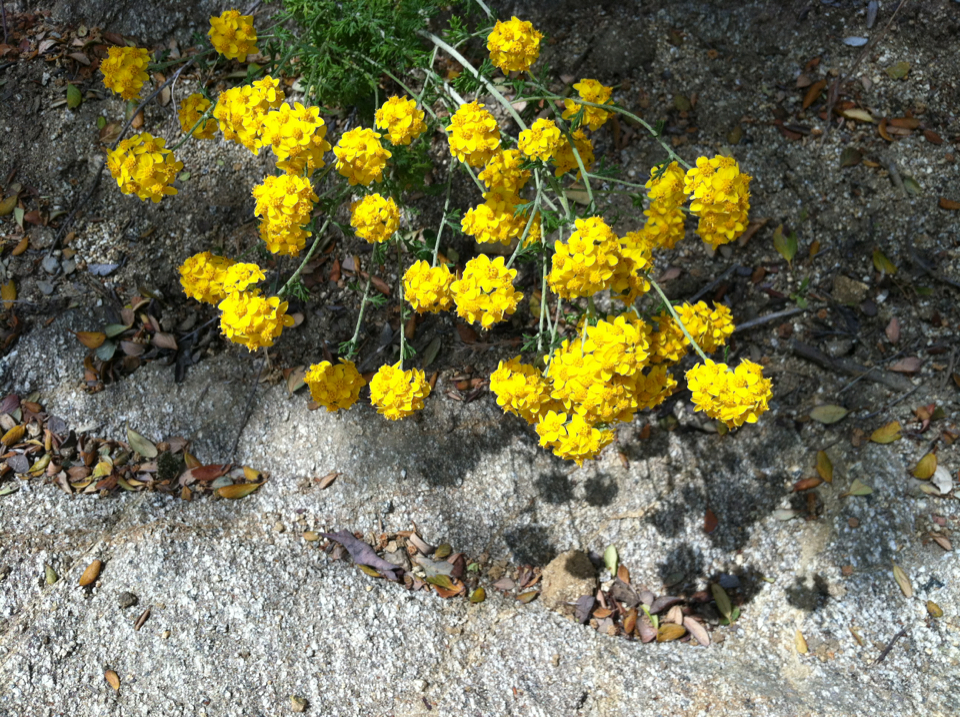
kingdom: Plantae
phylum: Tracheophyta
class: Magnoliopsida
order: Asterales
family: Asteraceae
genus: Eriophyllum
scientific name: Eriophyllum confertiflorum
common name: Golden-yarrow
